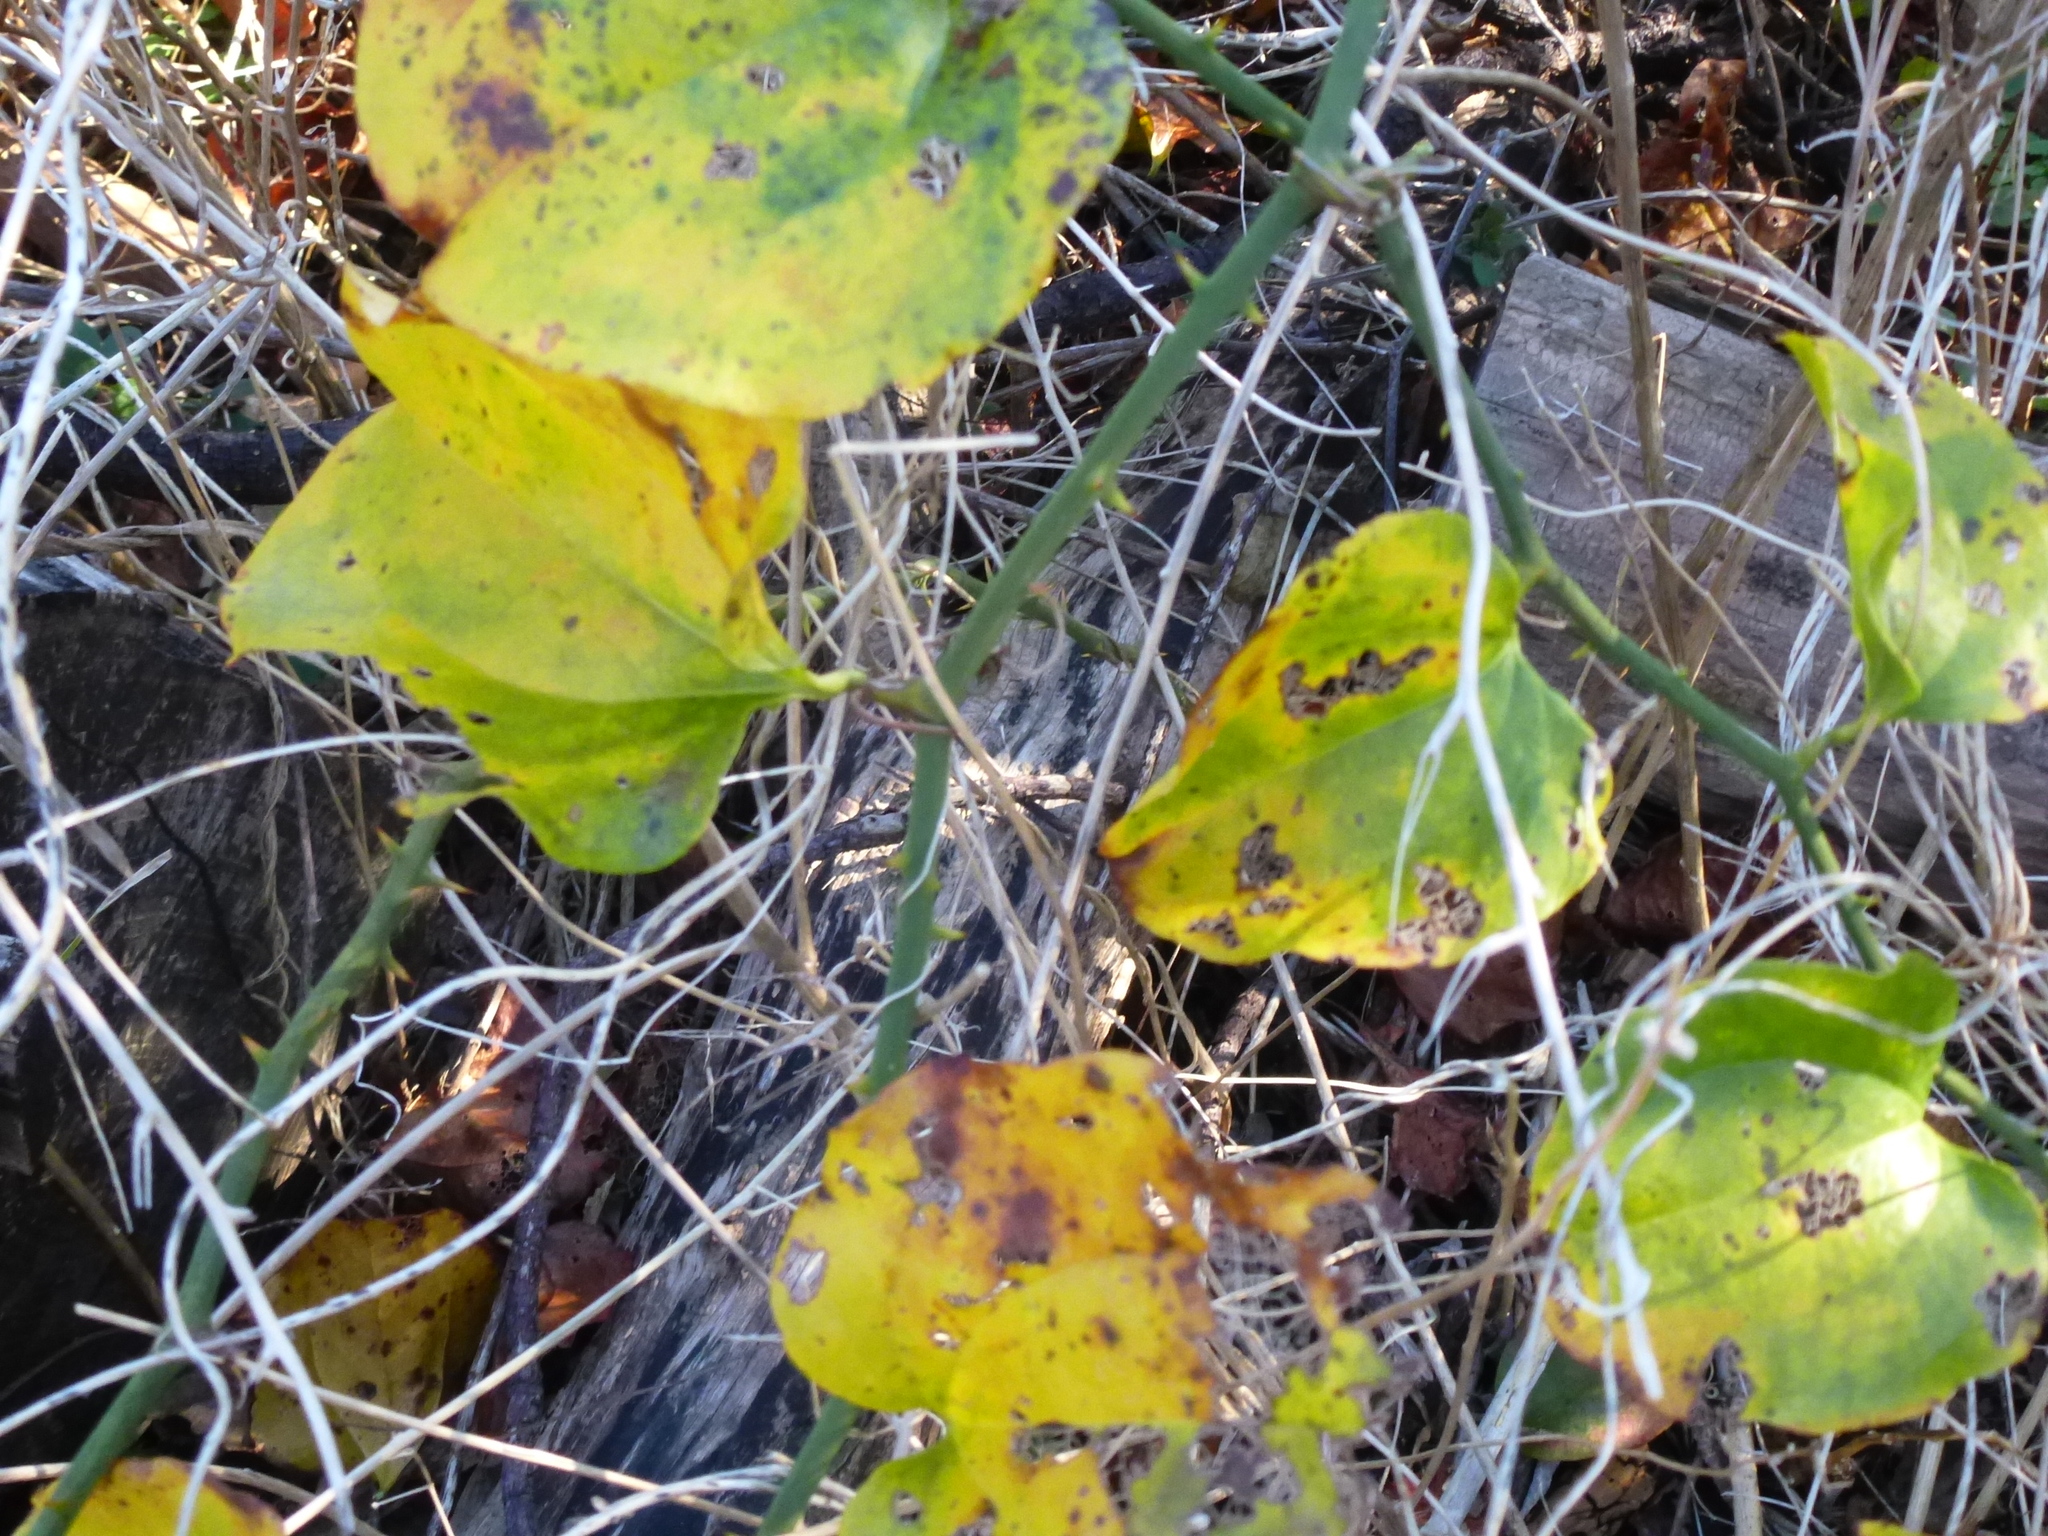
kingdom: Plantae
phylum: Tracheophyta
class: Liliopsida
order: Liliales
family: Smilacaceae
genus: Smilax
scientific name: Smilax rotundifolia
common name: Bullbriar
